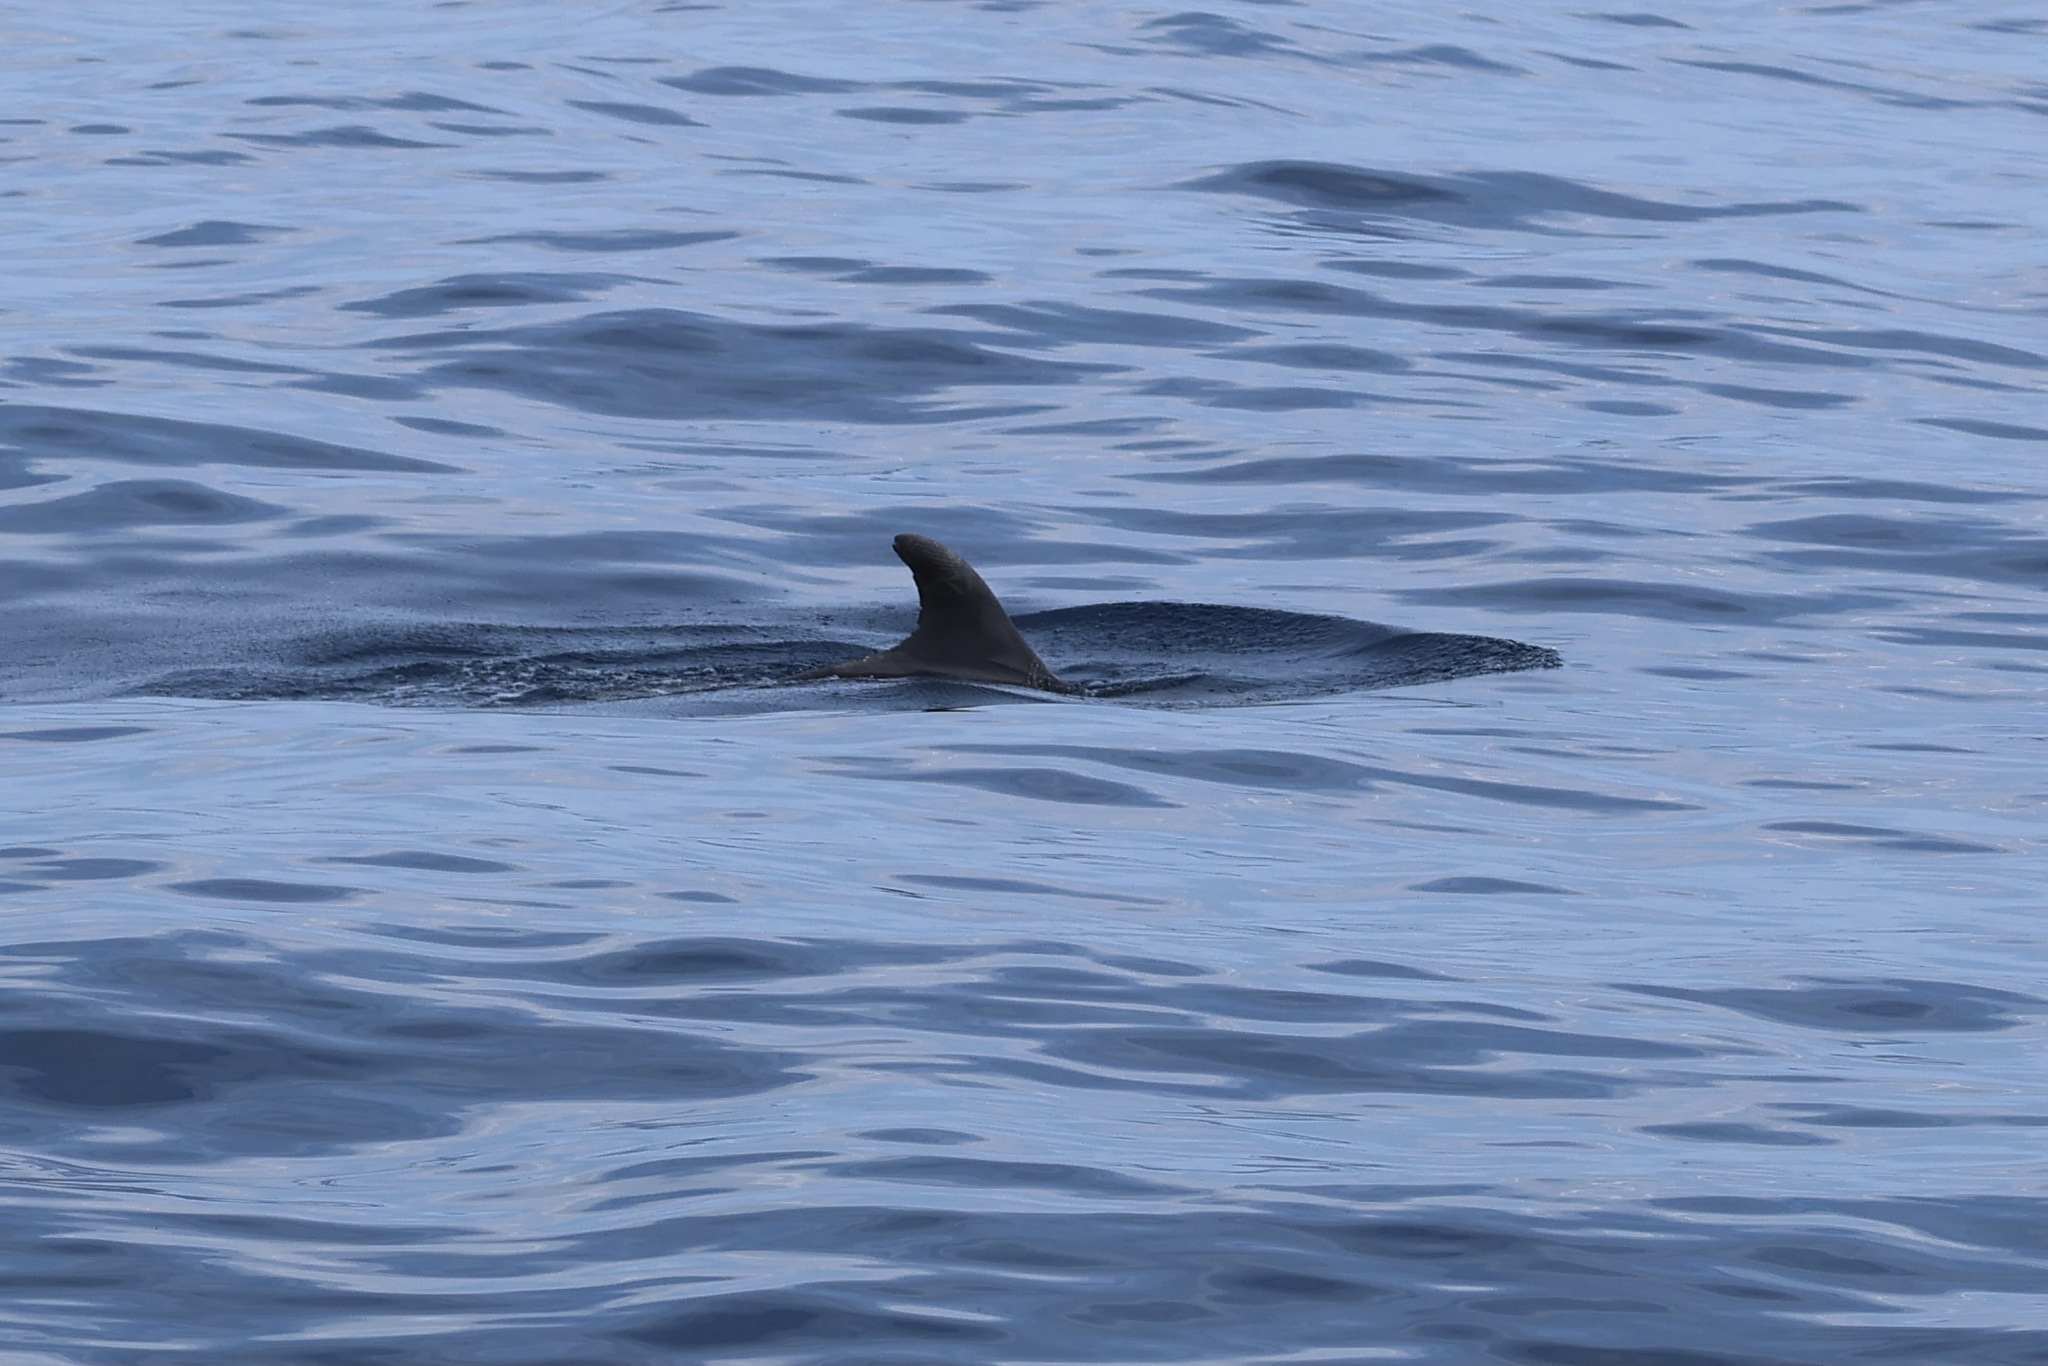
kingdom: Animalia
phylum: Chordata
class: Mammalia
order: Cetacea
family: Delphinidae
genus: Tursiops
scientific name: Tursiops truncatus
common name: Bottlenose dolphin
